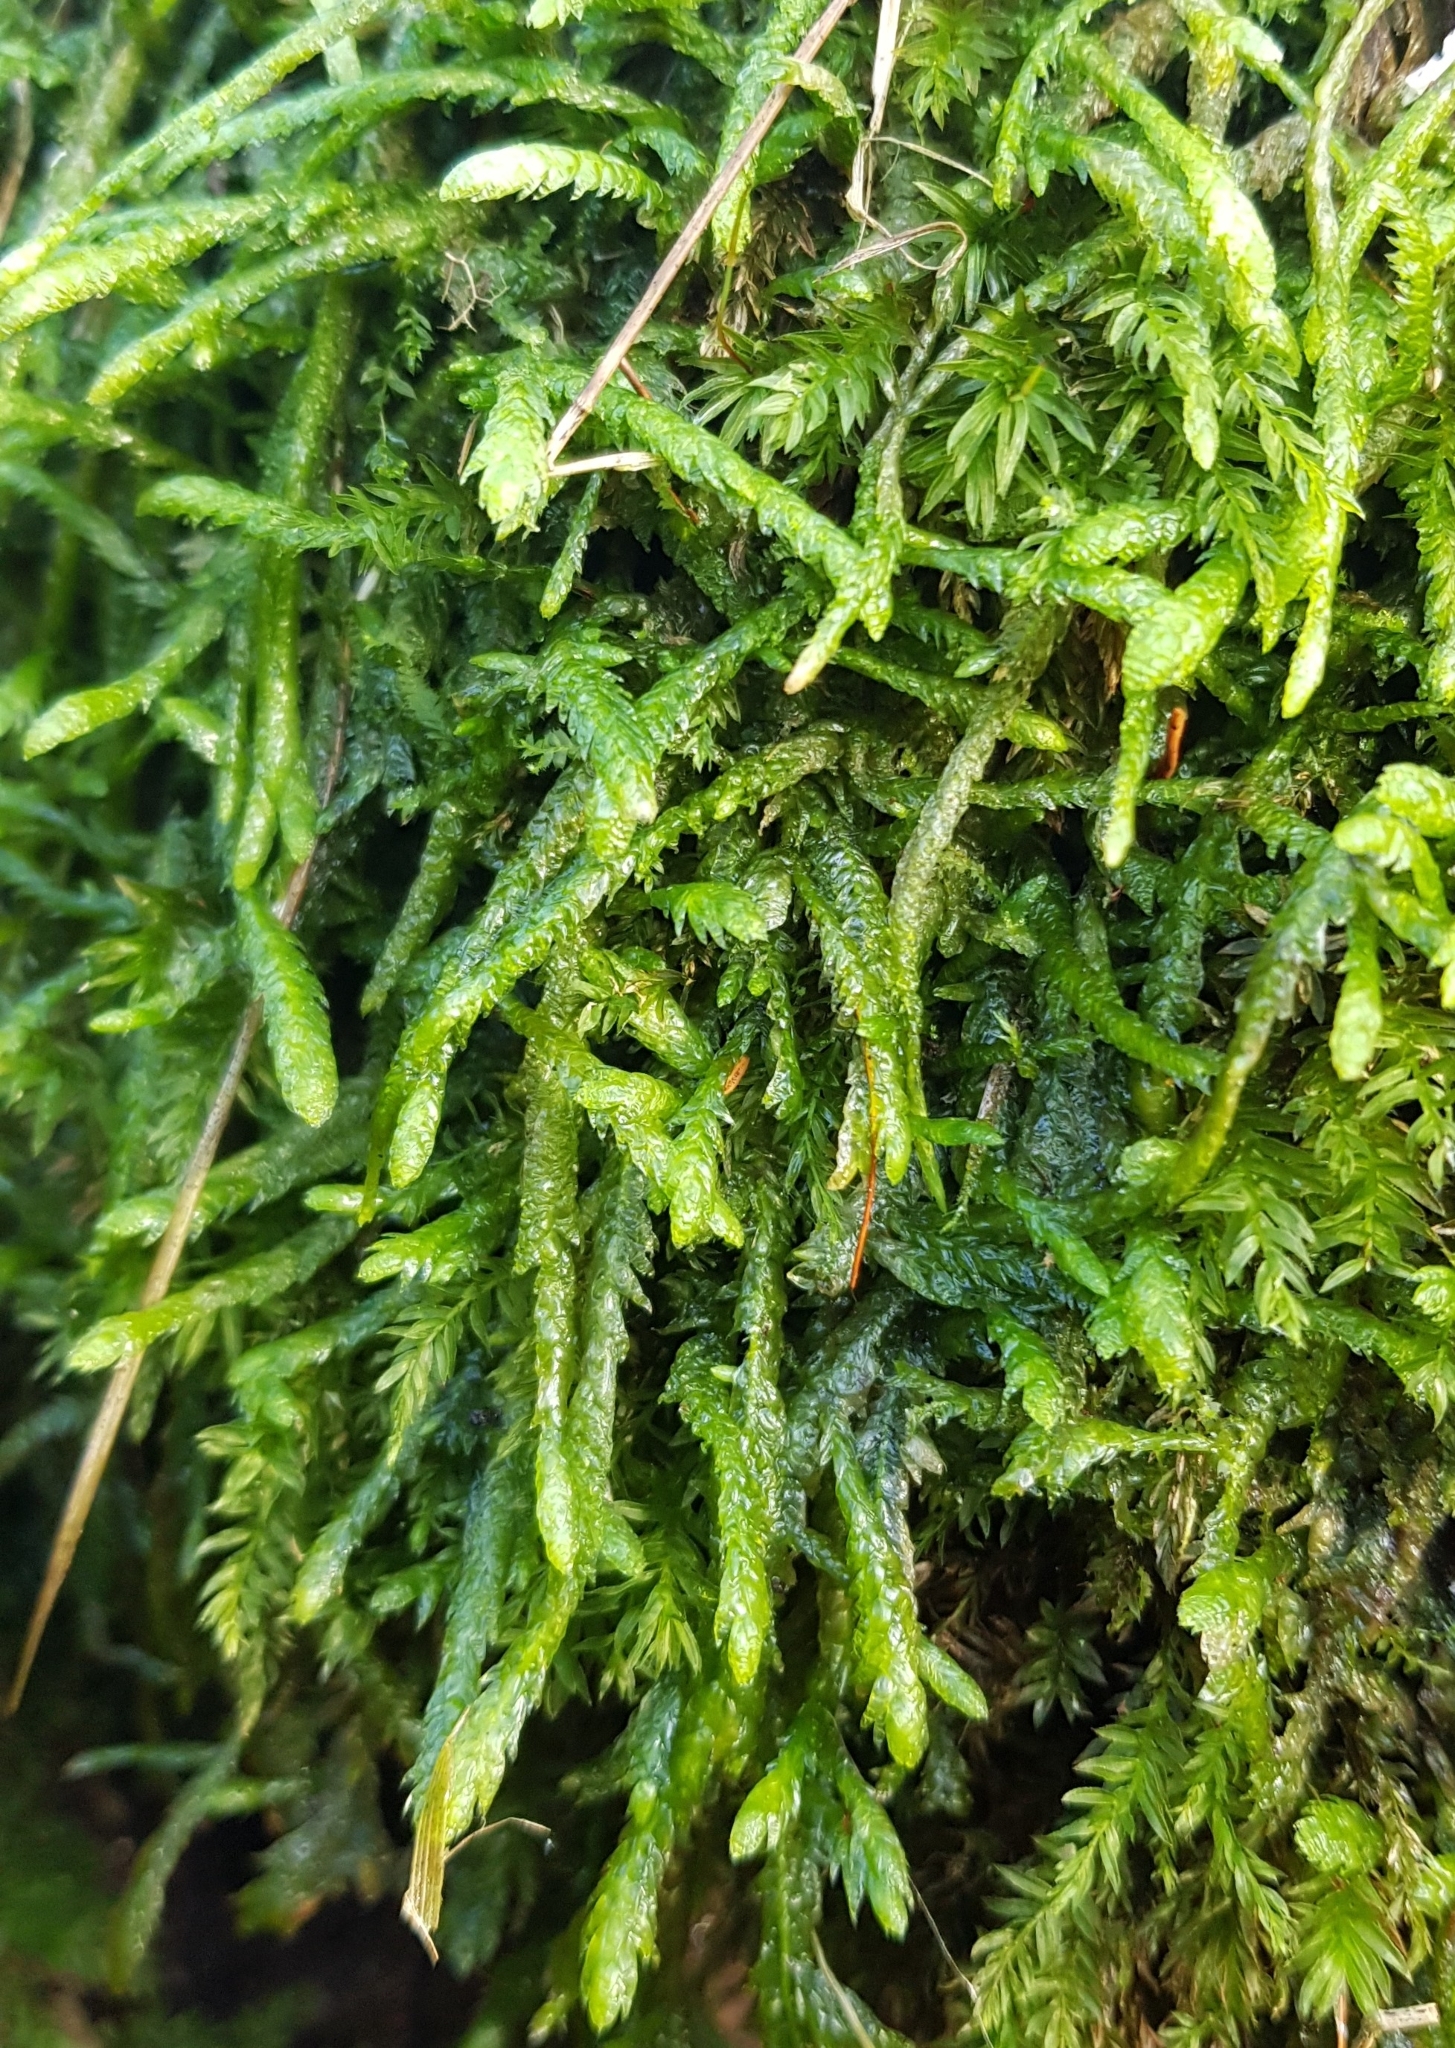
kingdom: Plantae
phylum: Bryophyta
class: Bryopsida
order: Hypnales
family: Plagiotheciaceae
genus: Plagiothecium
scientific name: Plagiothecium undulatum
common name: Waved silk-moss
